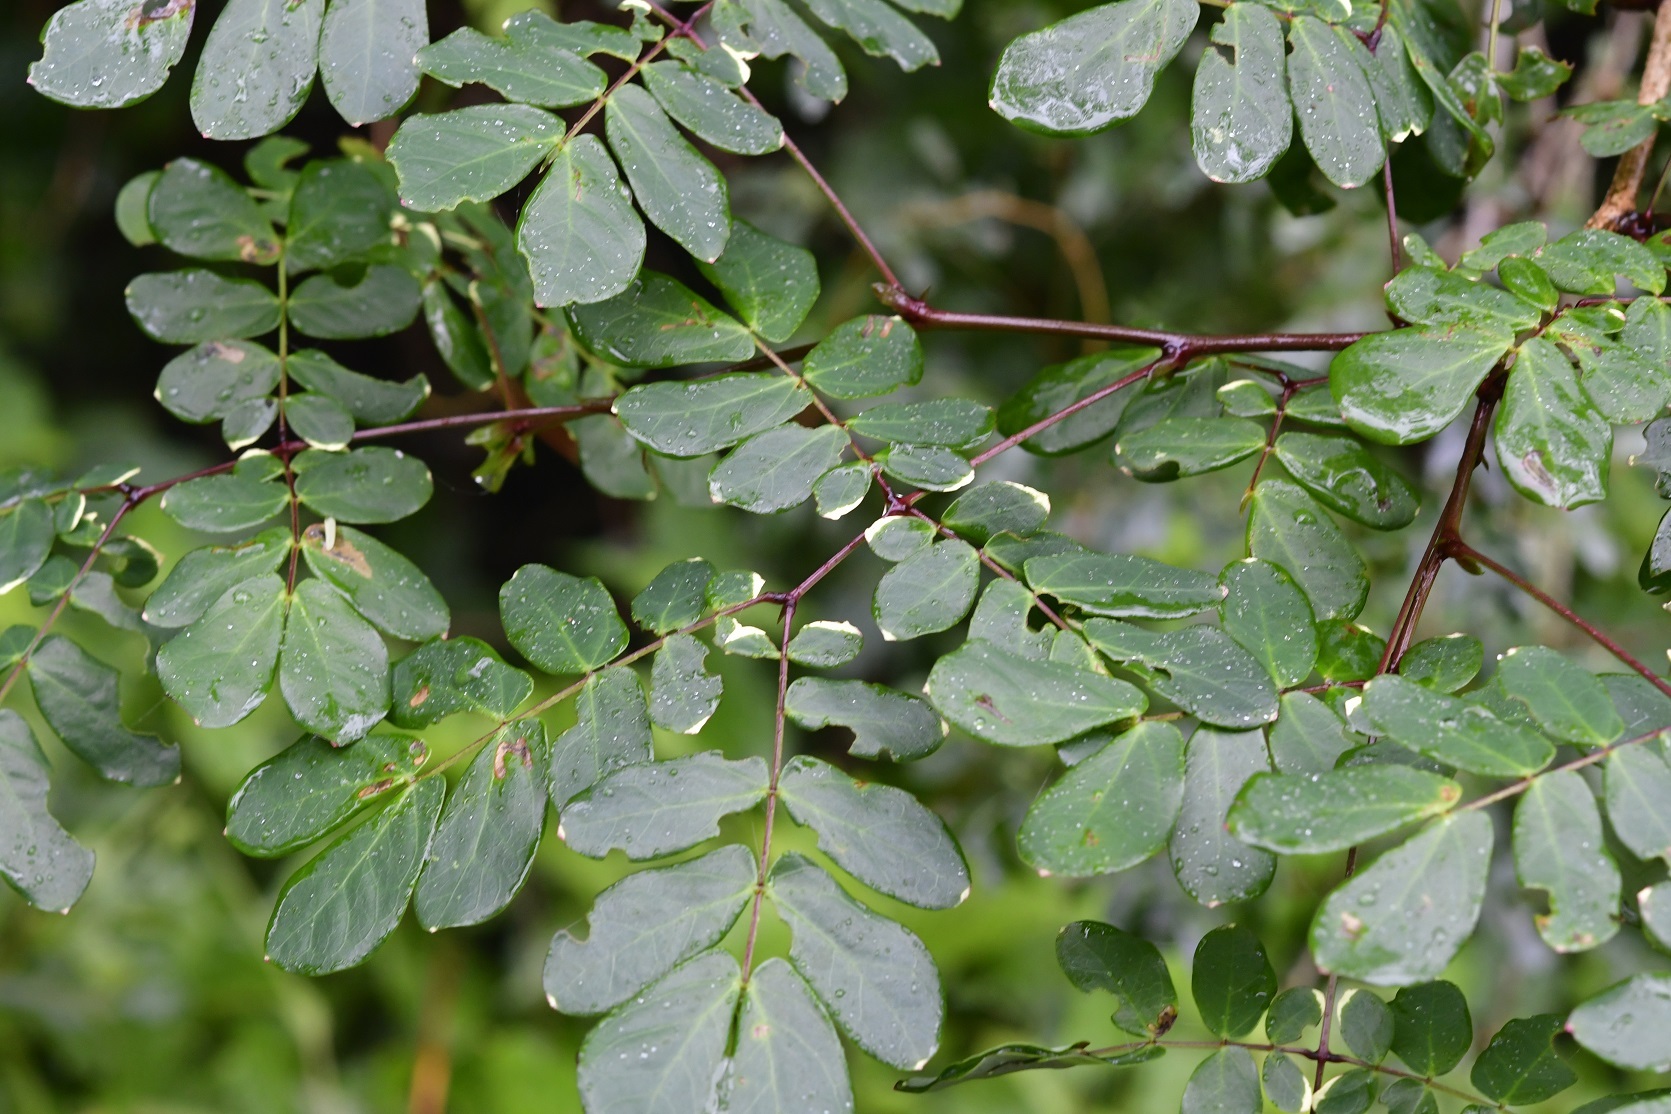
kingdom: Plantae
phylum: Tracheophyta
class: Magnoliopsida
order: Fabales
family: Fabaceae
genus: Zapoteca
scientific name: Zapoteca formosa
